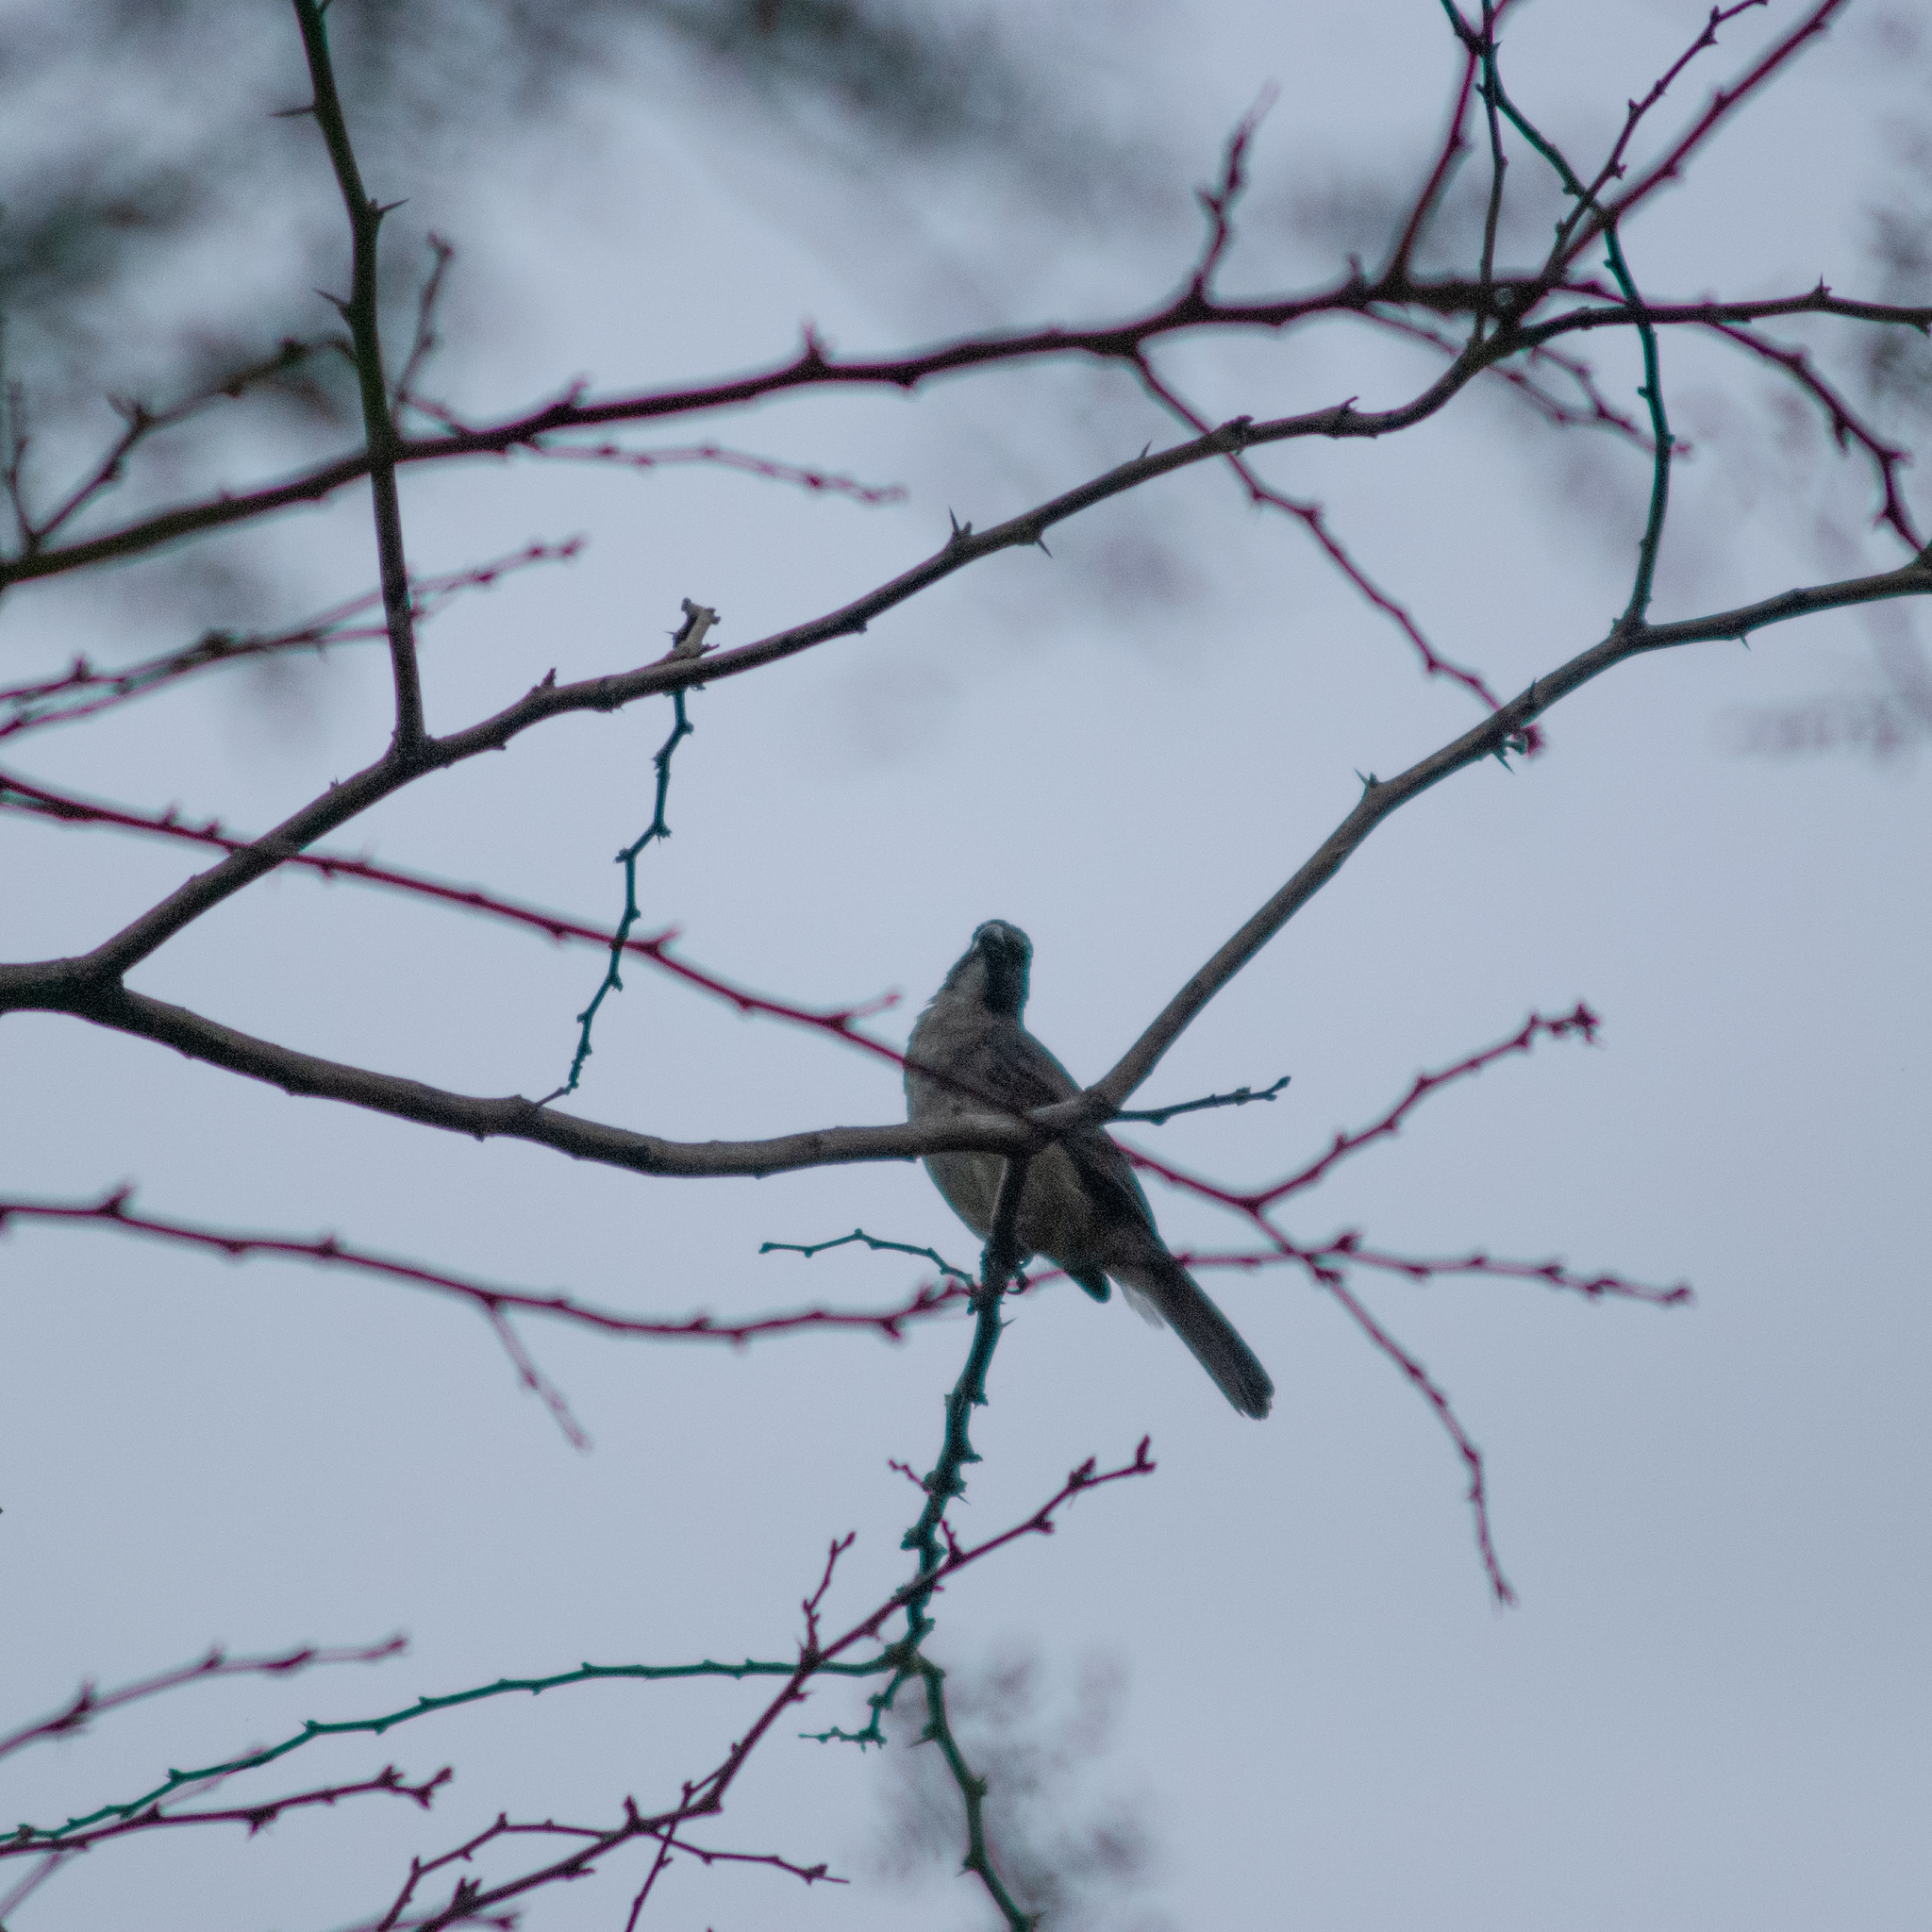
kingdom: Animalia
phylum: Chordata
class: Aves
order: Passeriformes
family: Thraupidae
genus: Saltator
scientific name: Saltator olivascens
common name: Caribbean grey saltator
